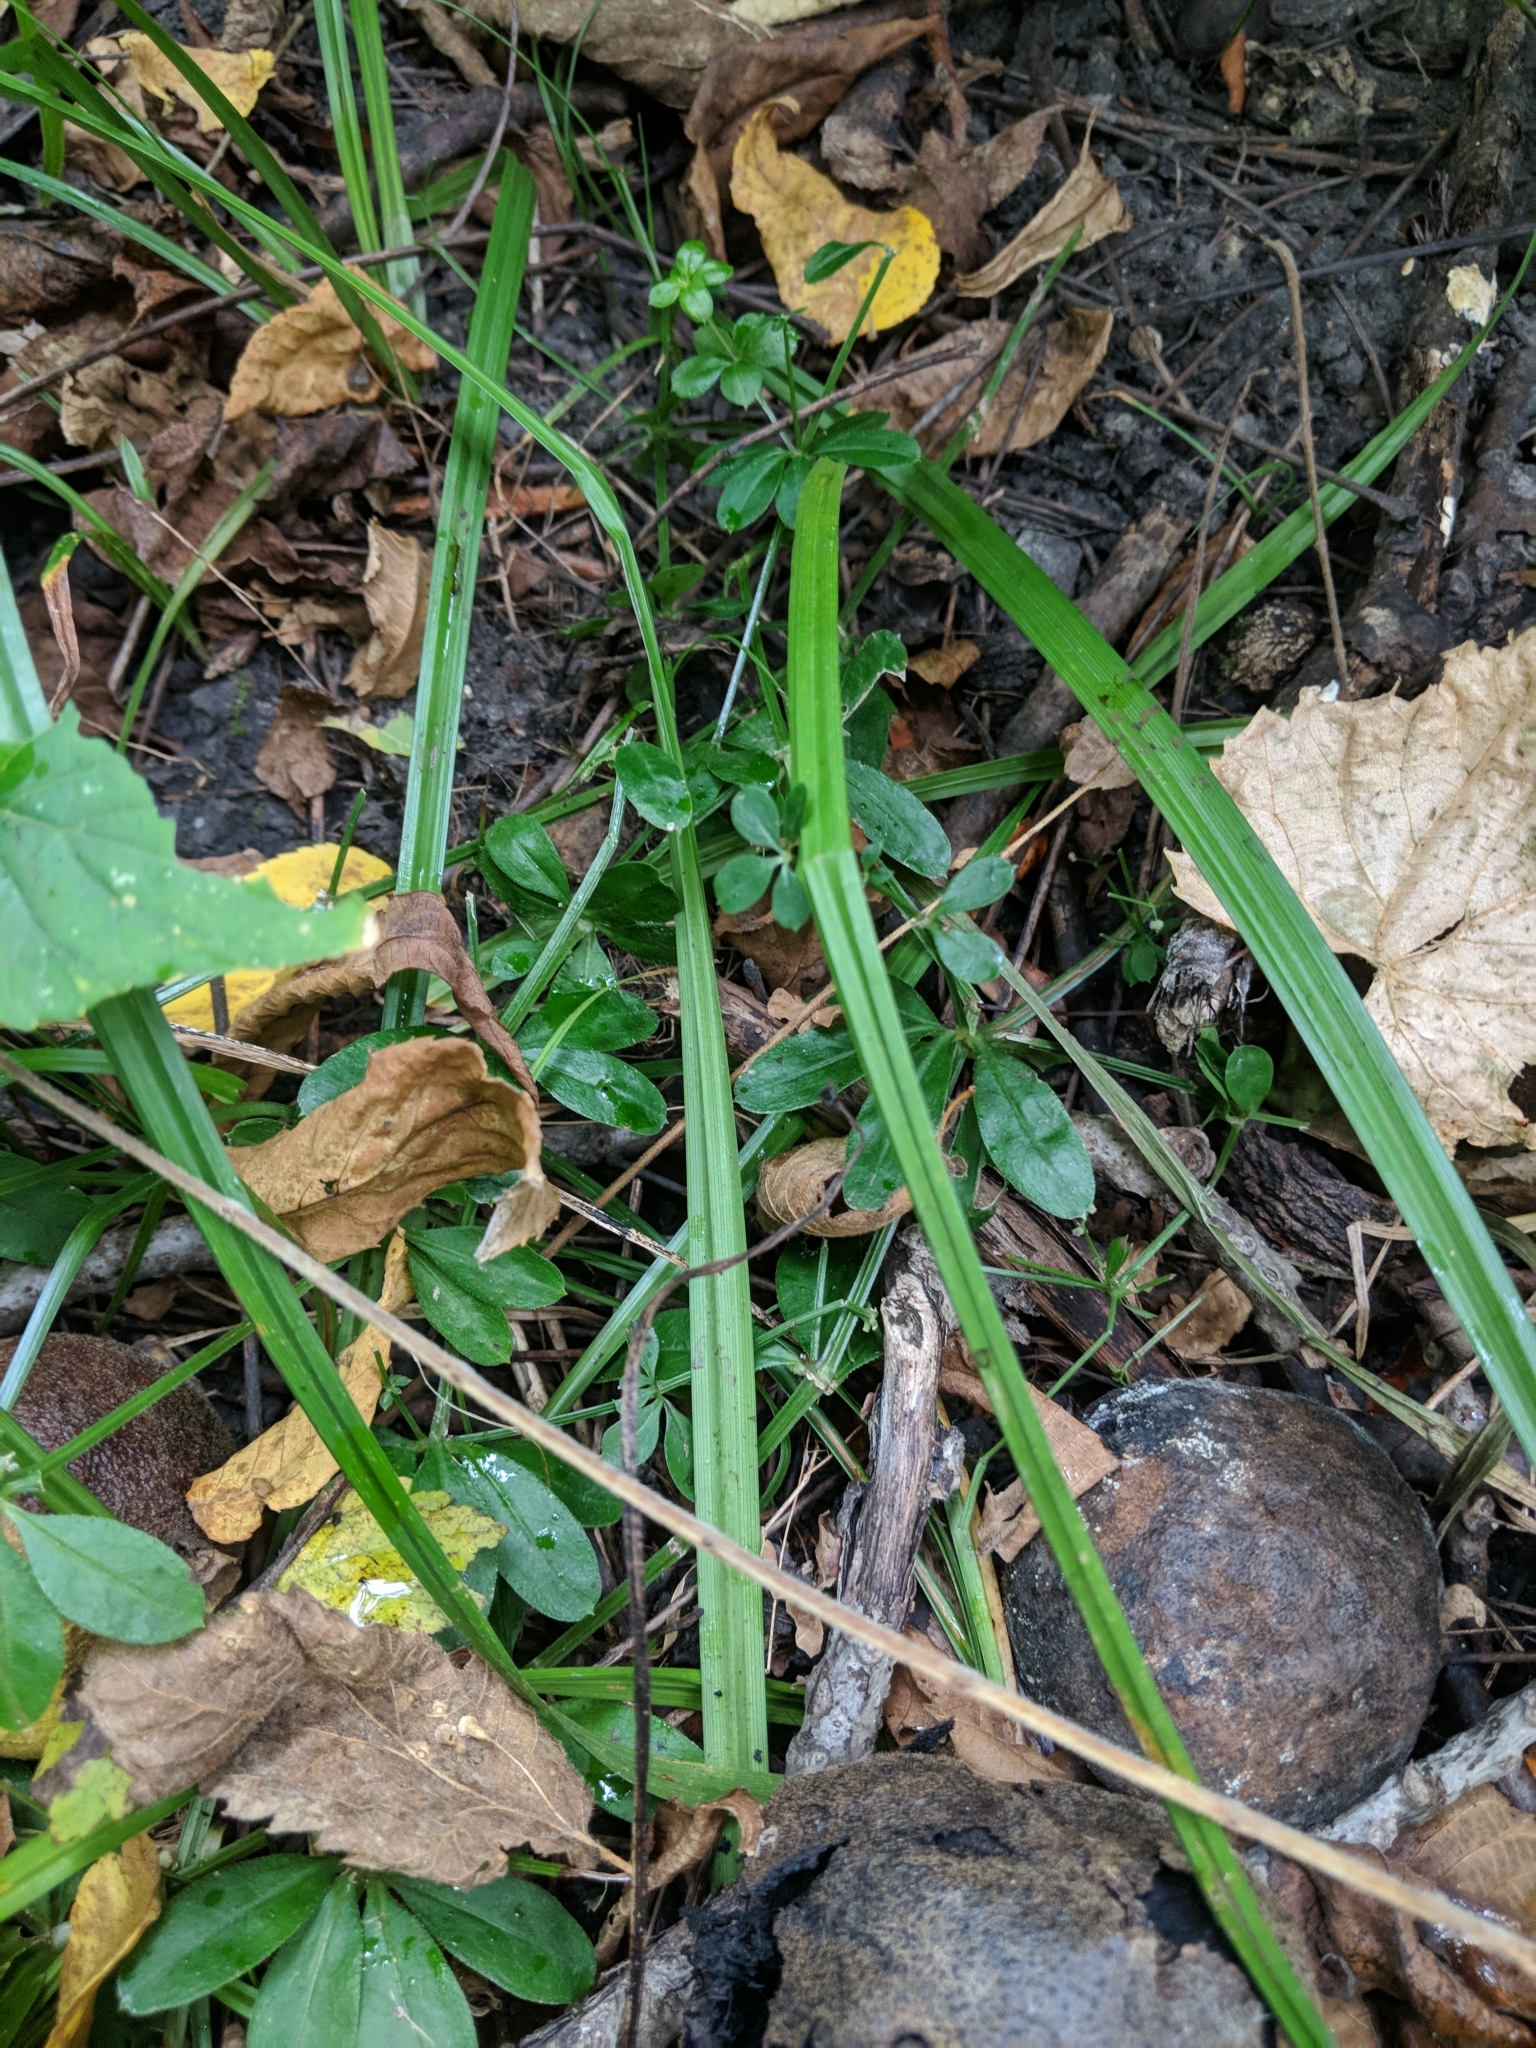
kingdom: Plantae
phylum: Tracheophyta
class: Magnoliopsida
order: Gentianales
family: Rubiaceae
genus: Galium
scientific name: Galium triflorum
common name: Fragrant bedstraw
